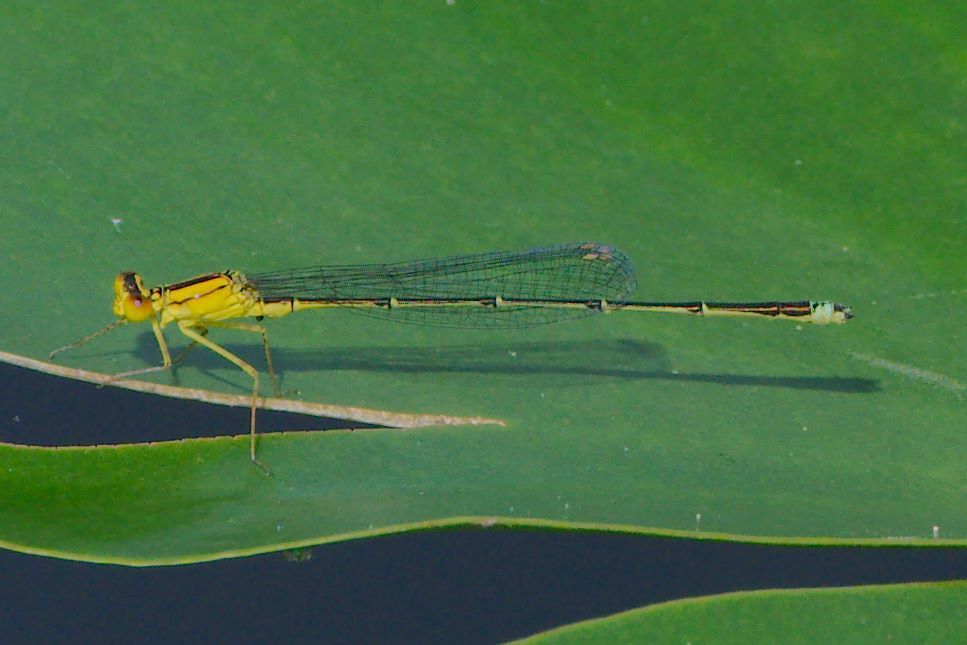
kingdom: Animalia
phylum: Arthropoda
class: Insecta
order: Odonata
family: Coenagrionidae
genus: Enallagma
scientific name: Enallagma vesperum
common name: Vesper bluet
